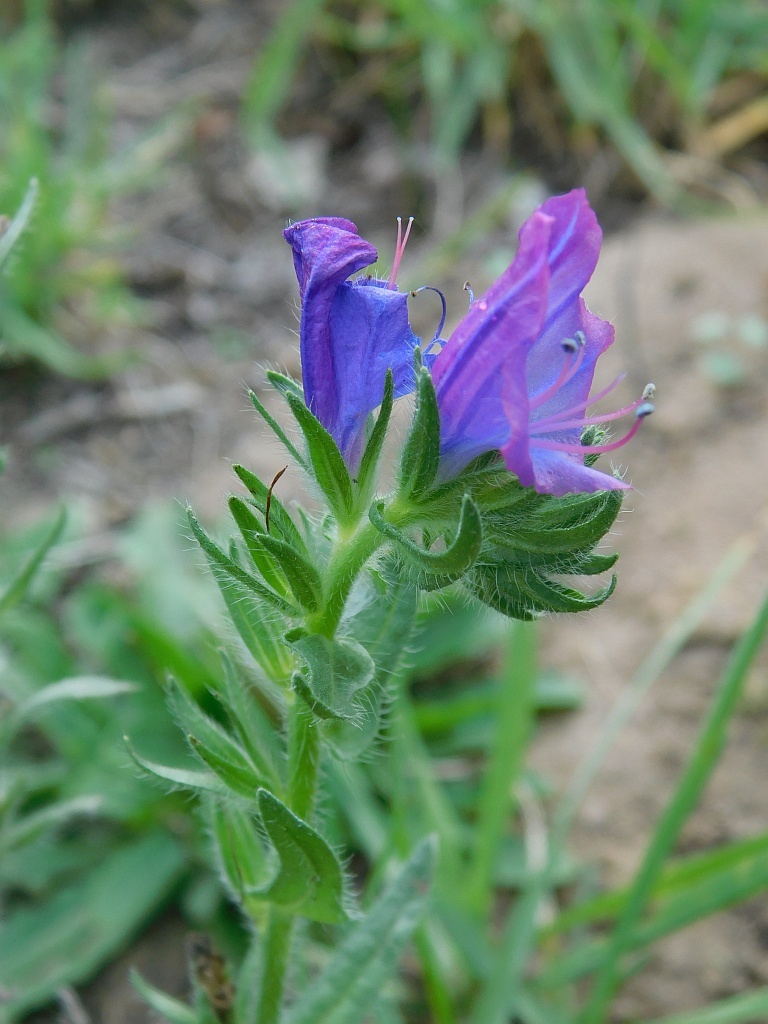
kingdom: Plantae
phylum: Tracheophyta
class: Magnoliopsida
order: Boraginales
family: Boraginaceae
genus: Echium
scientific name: Echium plantagineum
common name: Purple viper's-bugloss
